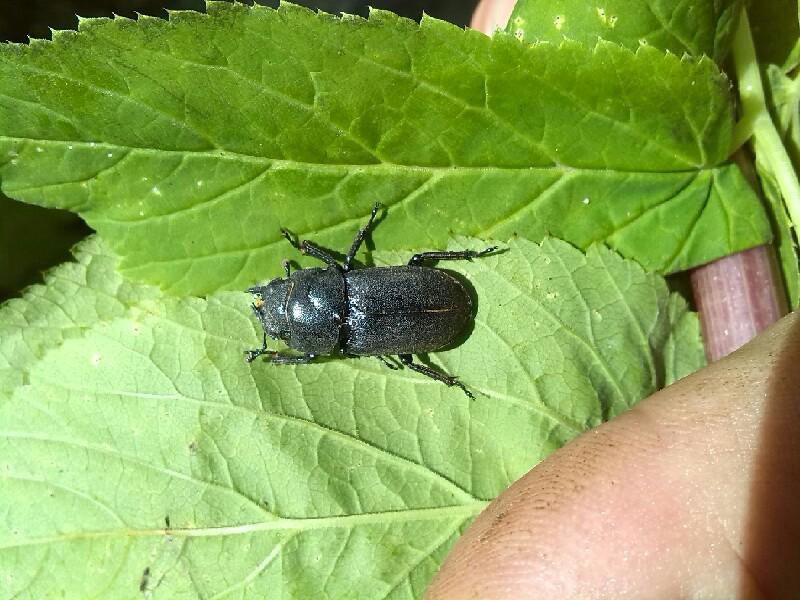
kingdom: Animalia
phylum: Arthropoda
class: Insecta
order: Coleoptera
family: Lucanidae
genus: Dorcus
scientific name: Dorcus parallelipipedus
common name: Lesser stag beetle
